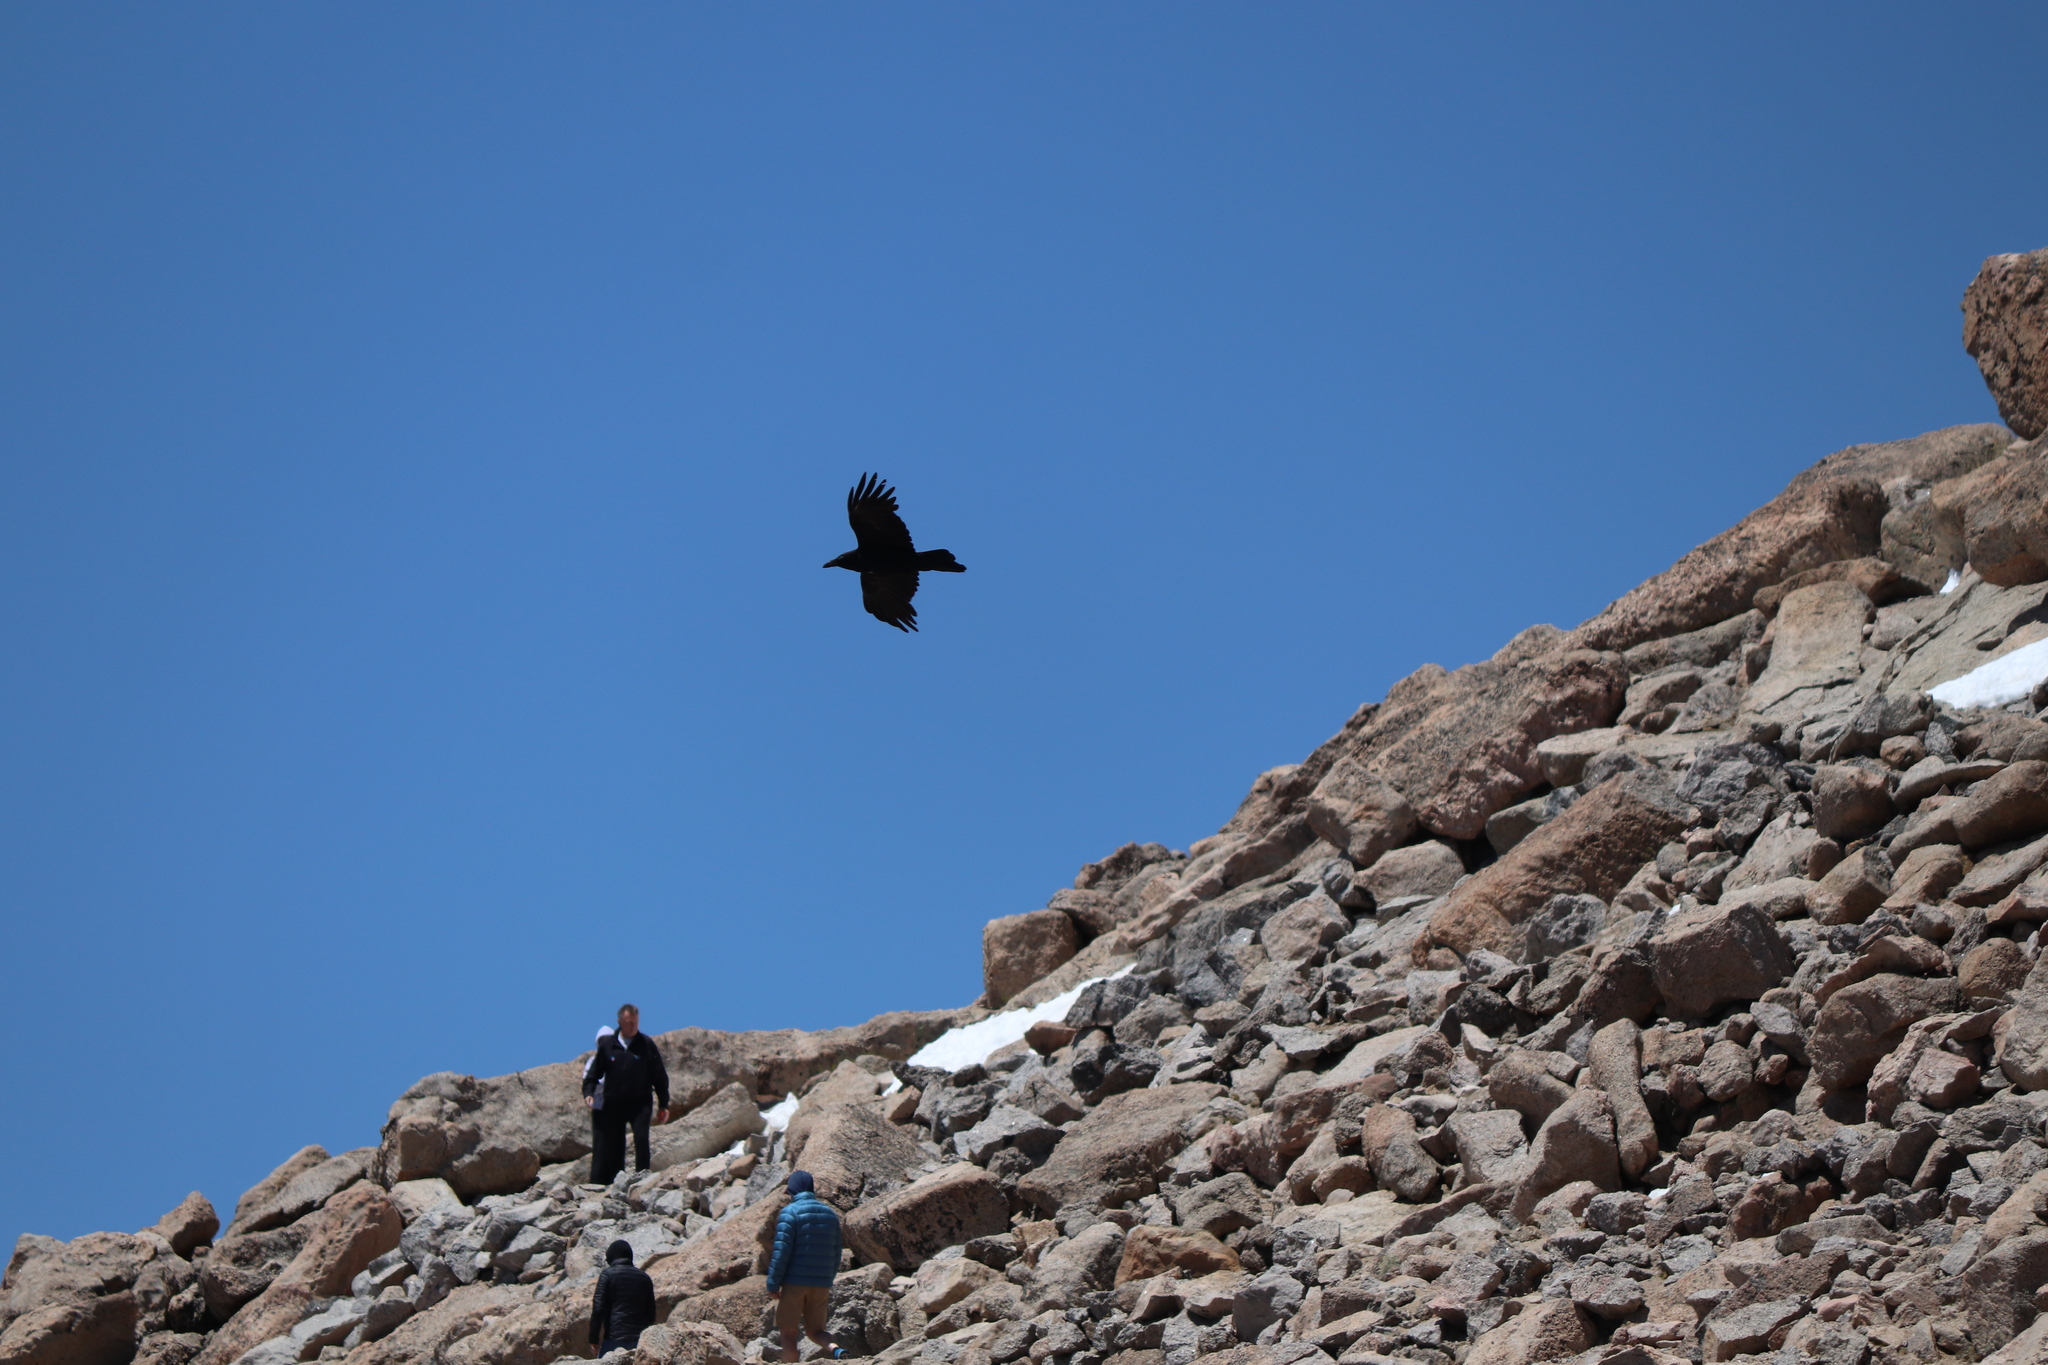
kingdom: Animalia
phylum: Chordata
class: Aves
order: Passeriformes
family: Corvidae
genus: Corvus
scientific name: Corvus corax
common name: Common raven
